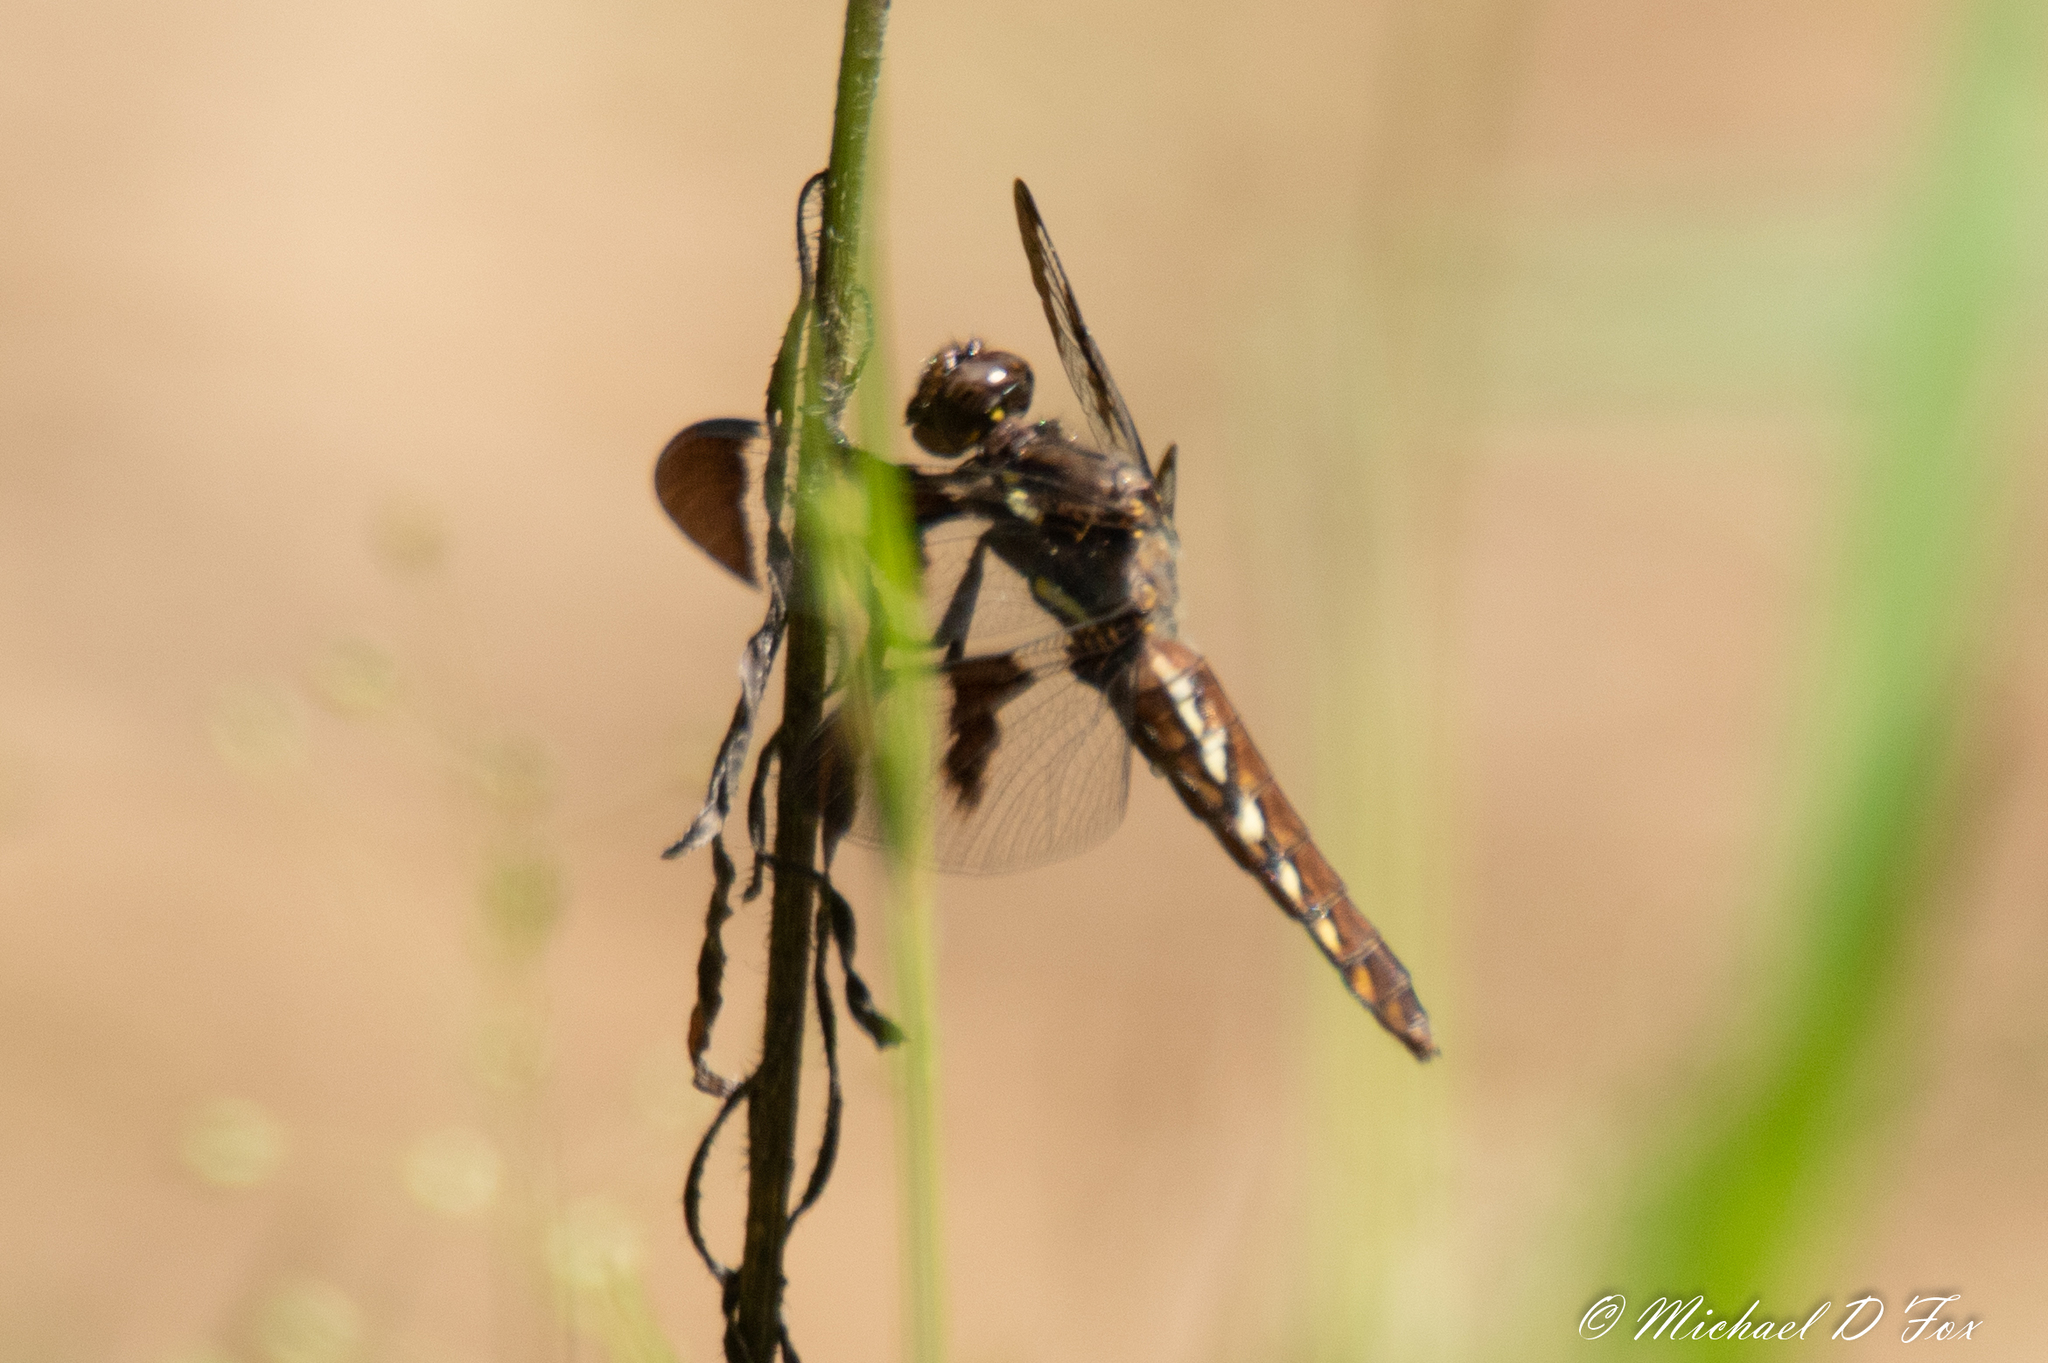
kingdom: Animalia
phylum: Arthropoda
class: Insecta
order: Odonata
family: Libellulidae
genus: Plathemis
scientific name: Plathemis lydia
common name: Common whitetail
